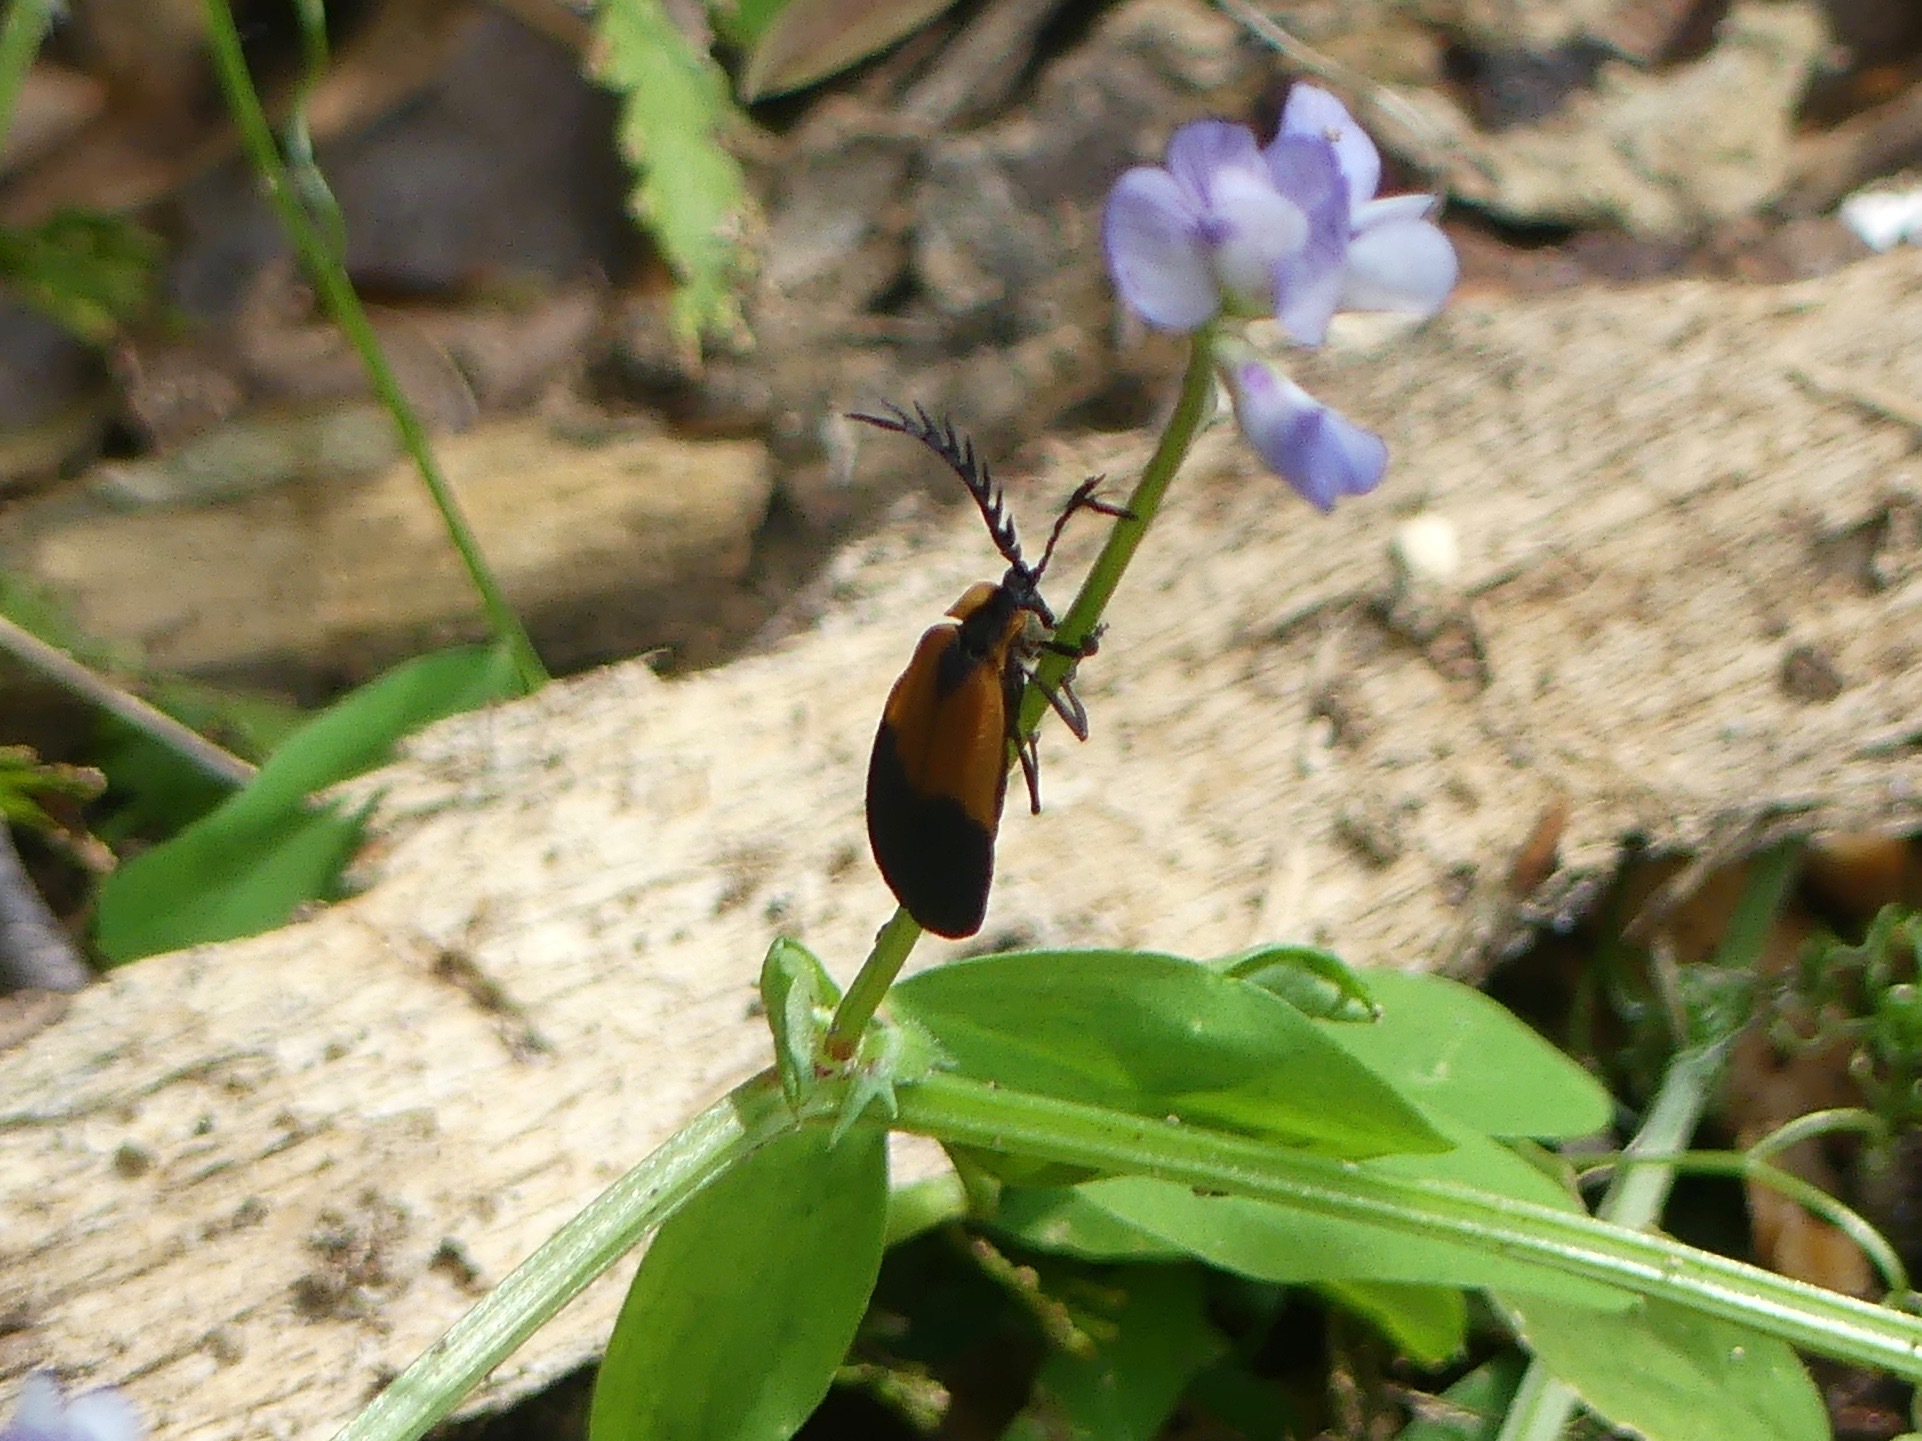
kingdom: Animalia
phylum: Arthropoda
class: Insecta
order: Coleoptera
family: Lycidae
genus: Caenia
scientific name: Caenia dimidiata
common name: Terminal net-winged beetle
